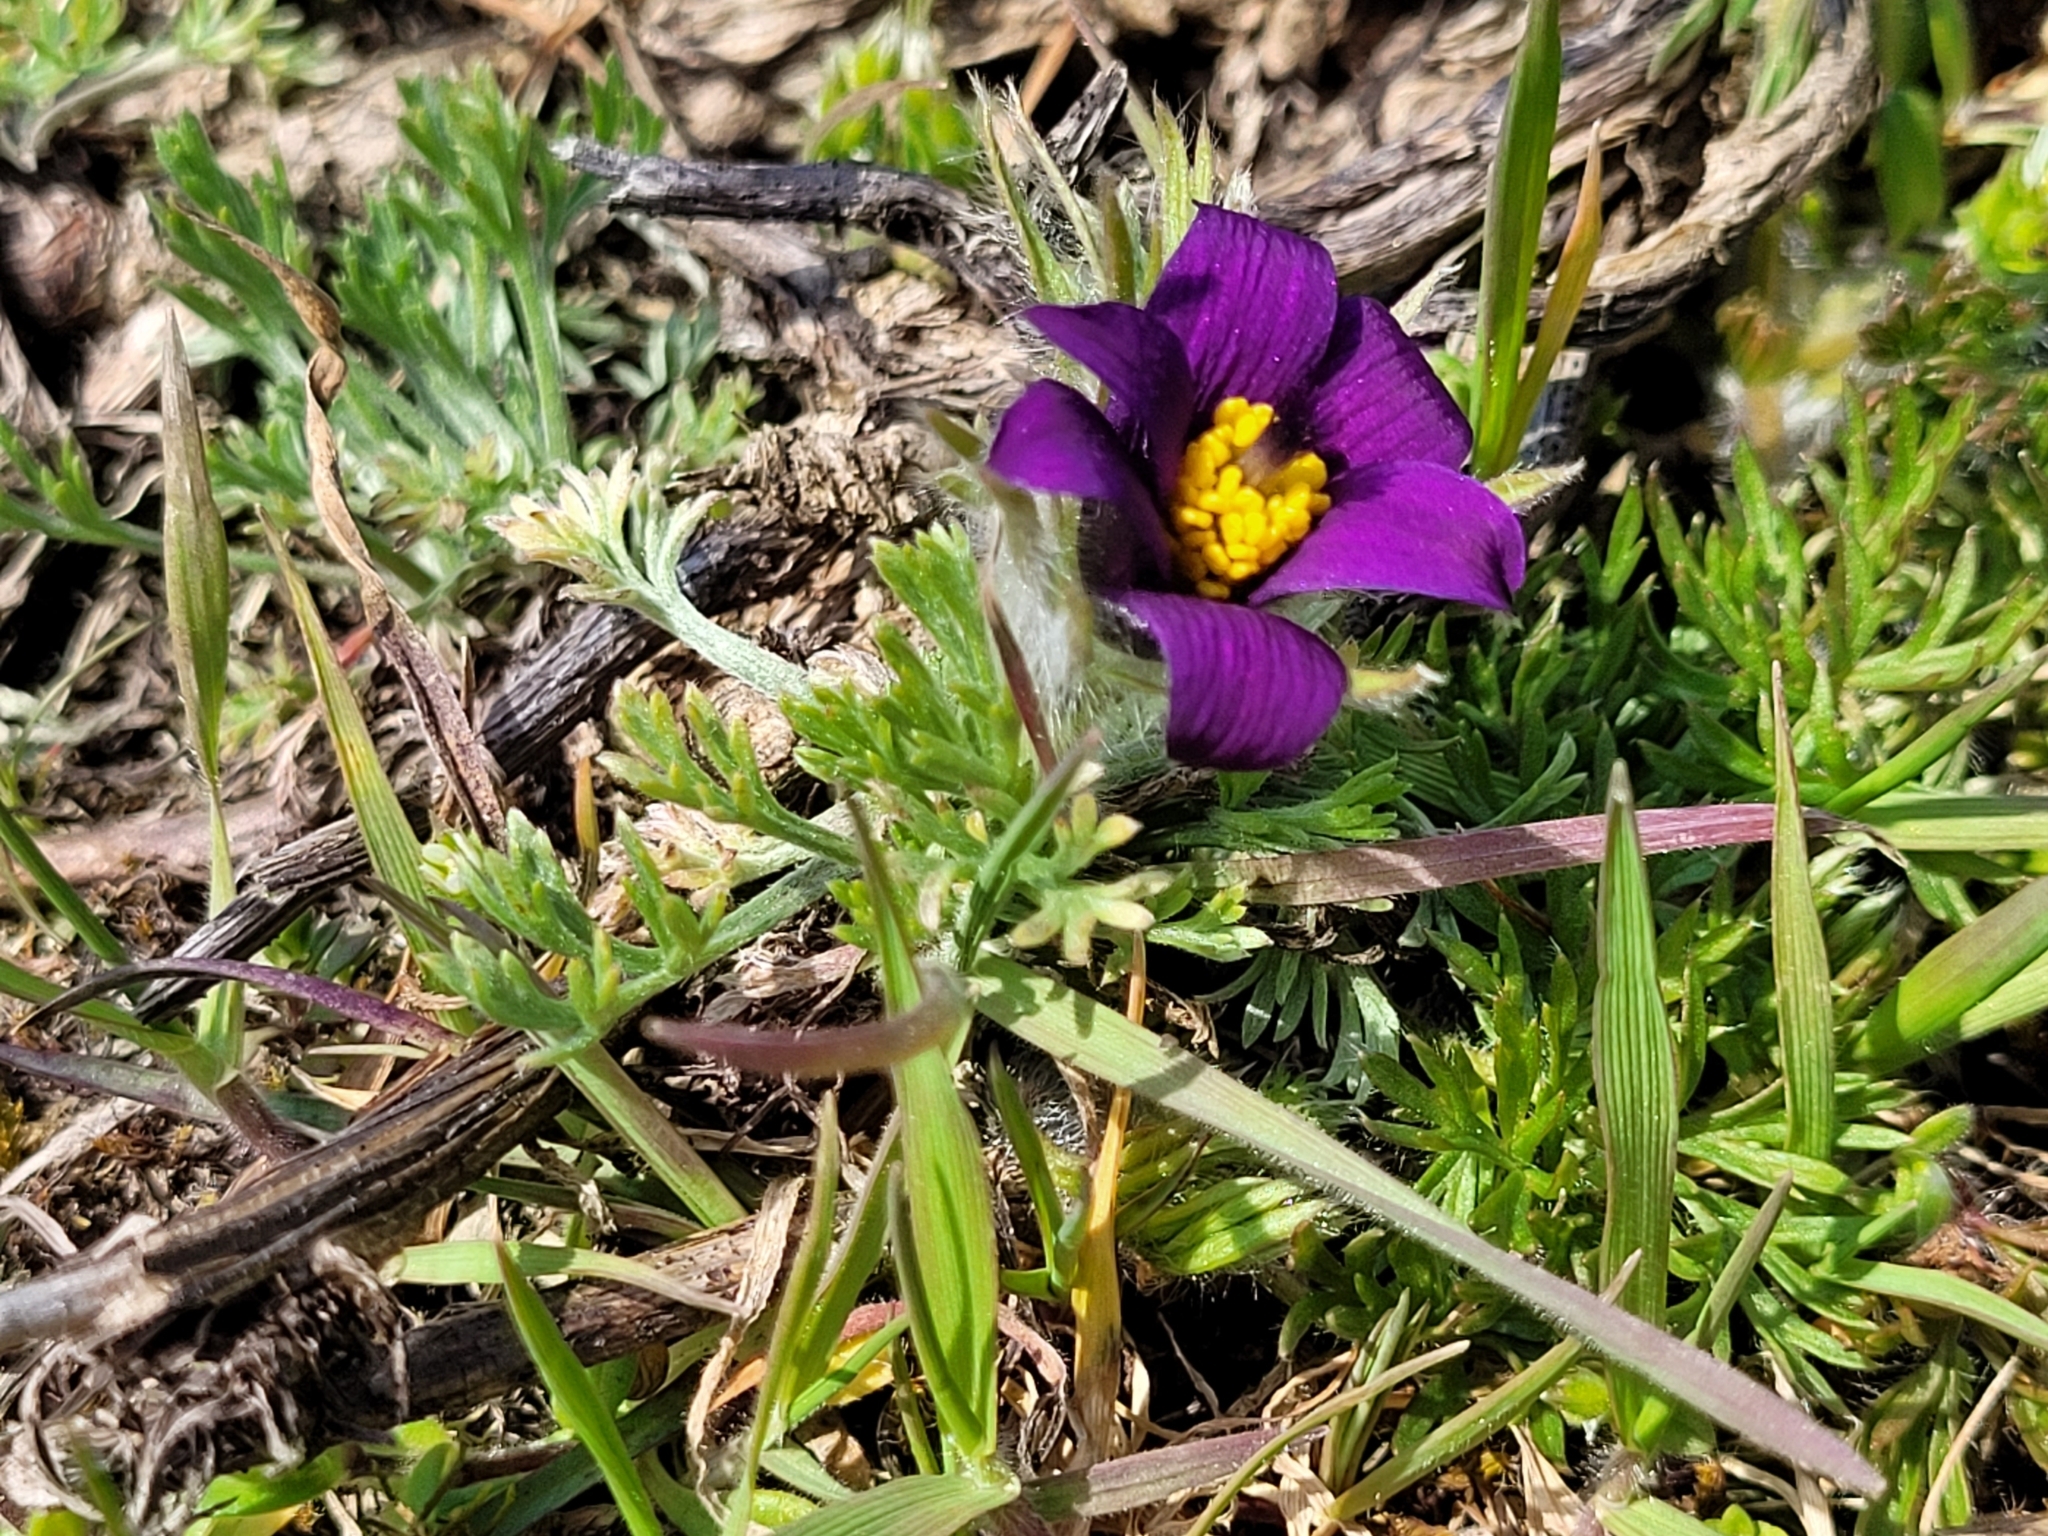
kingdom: Plantae
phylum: Tracheophyta
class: Magnoliopsida
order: Ranunculales
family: Ranunculaceae
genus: Pulsatilla
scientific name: Pulsatilla vulgaris
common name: Pasqueflower
